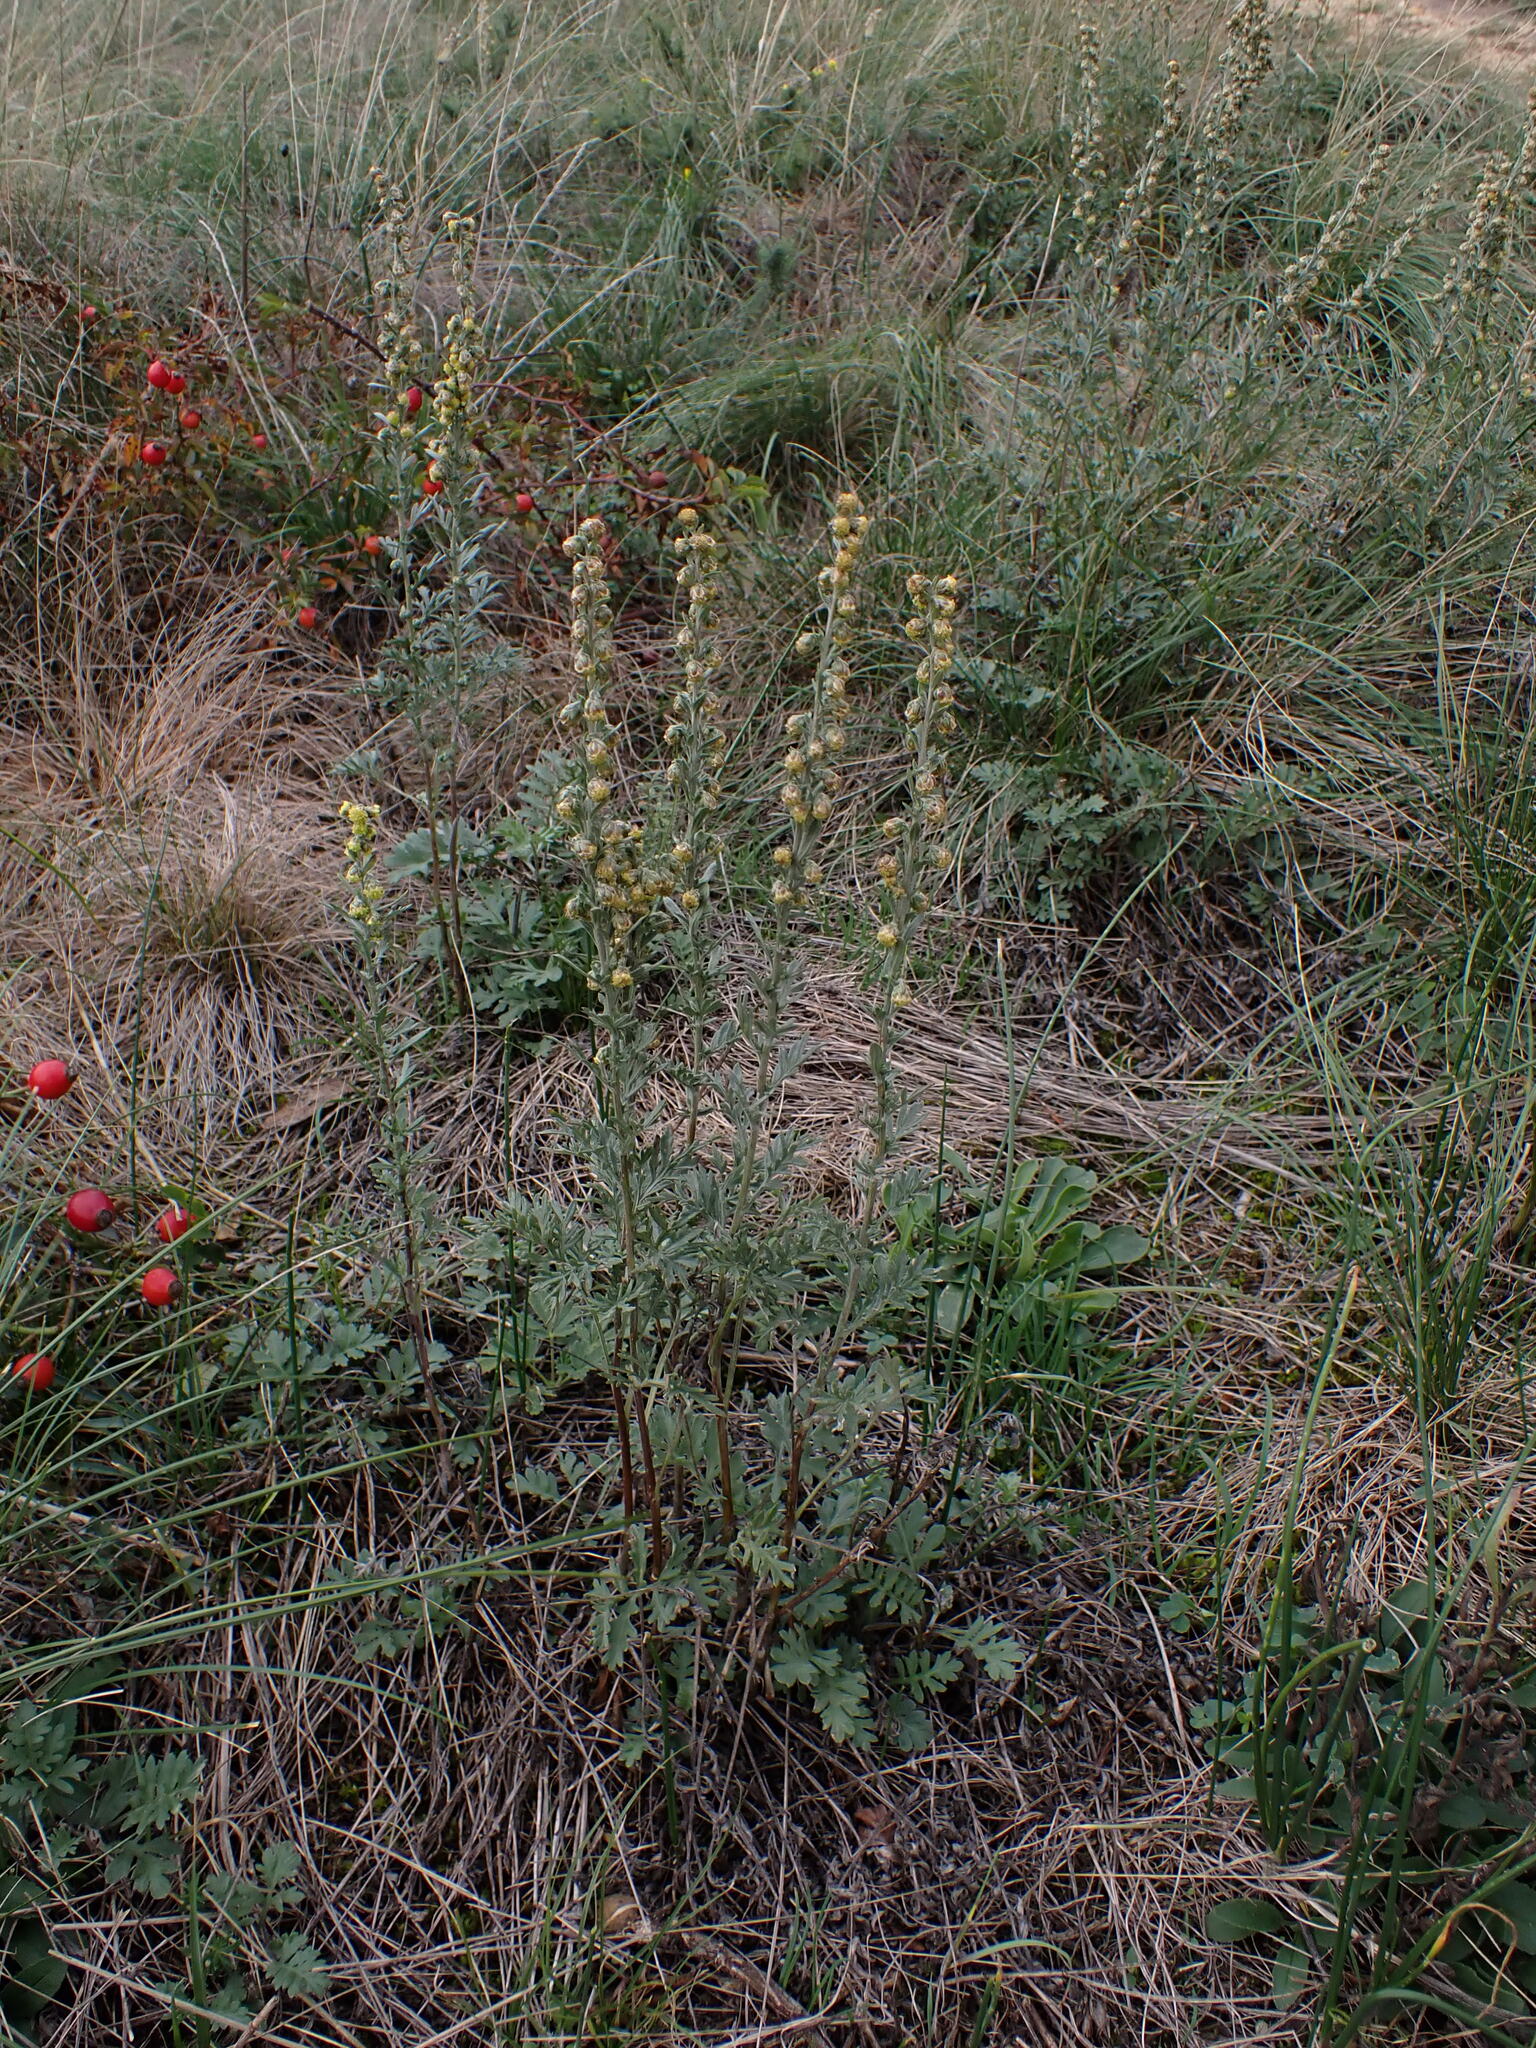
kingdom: Plantae
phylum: Tracheophyta
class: Magnoliopsida
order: Asterales
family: Asteraceae
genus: Artemisia
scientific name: Artemisia pancicii
